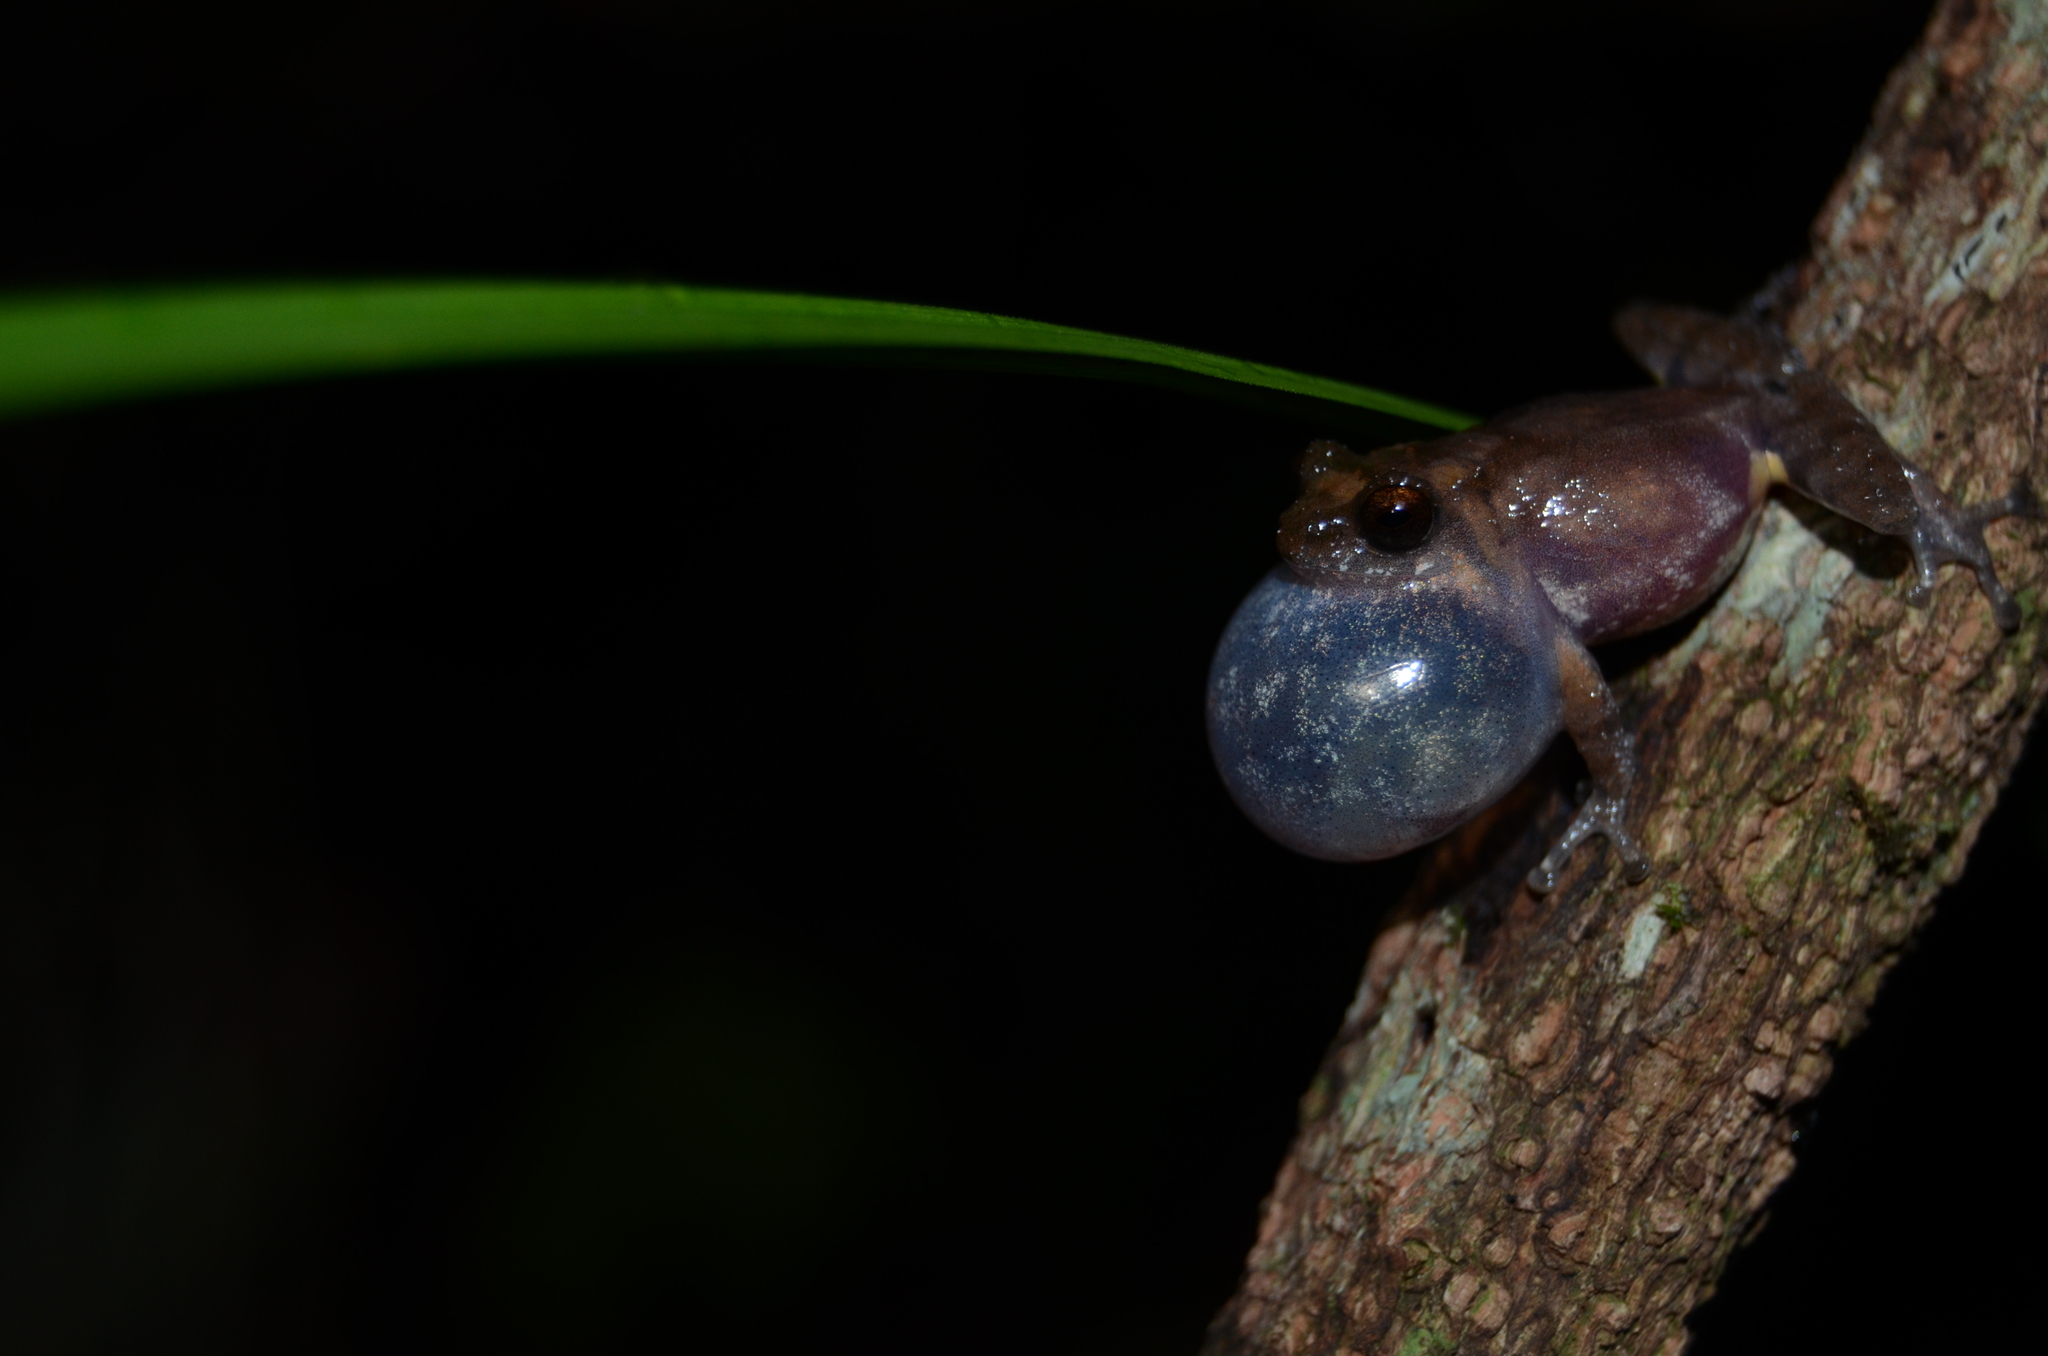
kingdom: Animalia
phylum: Chordata
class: Amphibia
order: Anura
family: Rhacophoridae
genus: Raorchestes
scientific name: Raorchestes tuberohumerus
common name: Kudremukh bush frog
